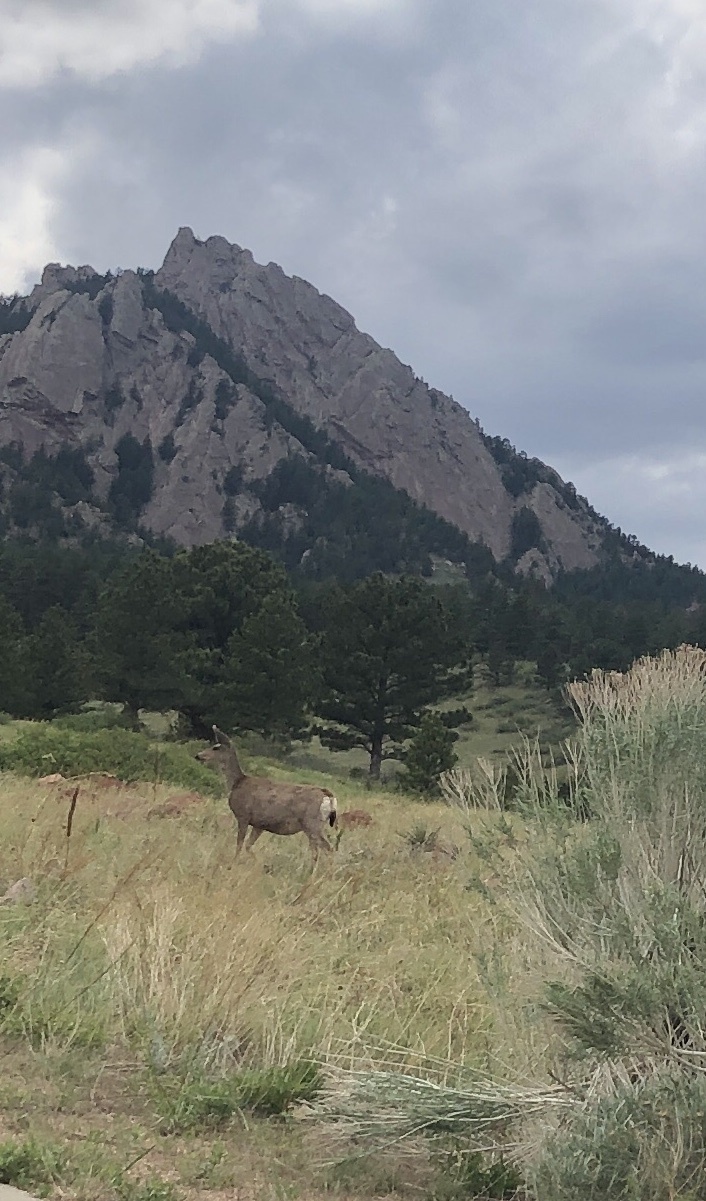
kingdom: Animalia
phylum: Chordata
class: Mammalia
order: Artiodactyla
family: Cervidae
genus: Odocoileus
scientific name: Odocoileus hemionus
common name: Mule deer
